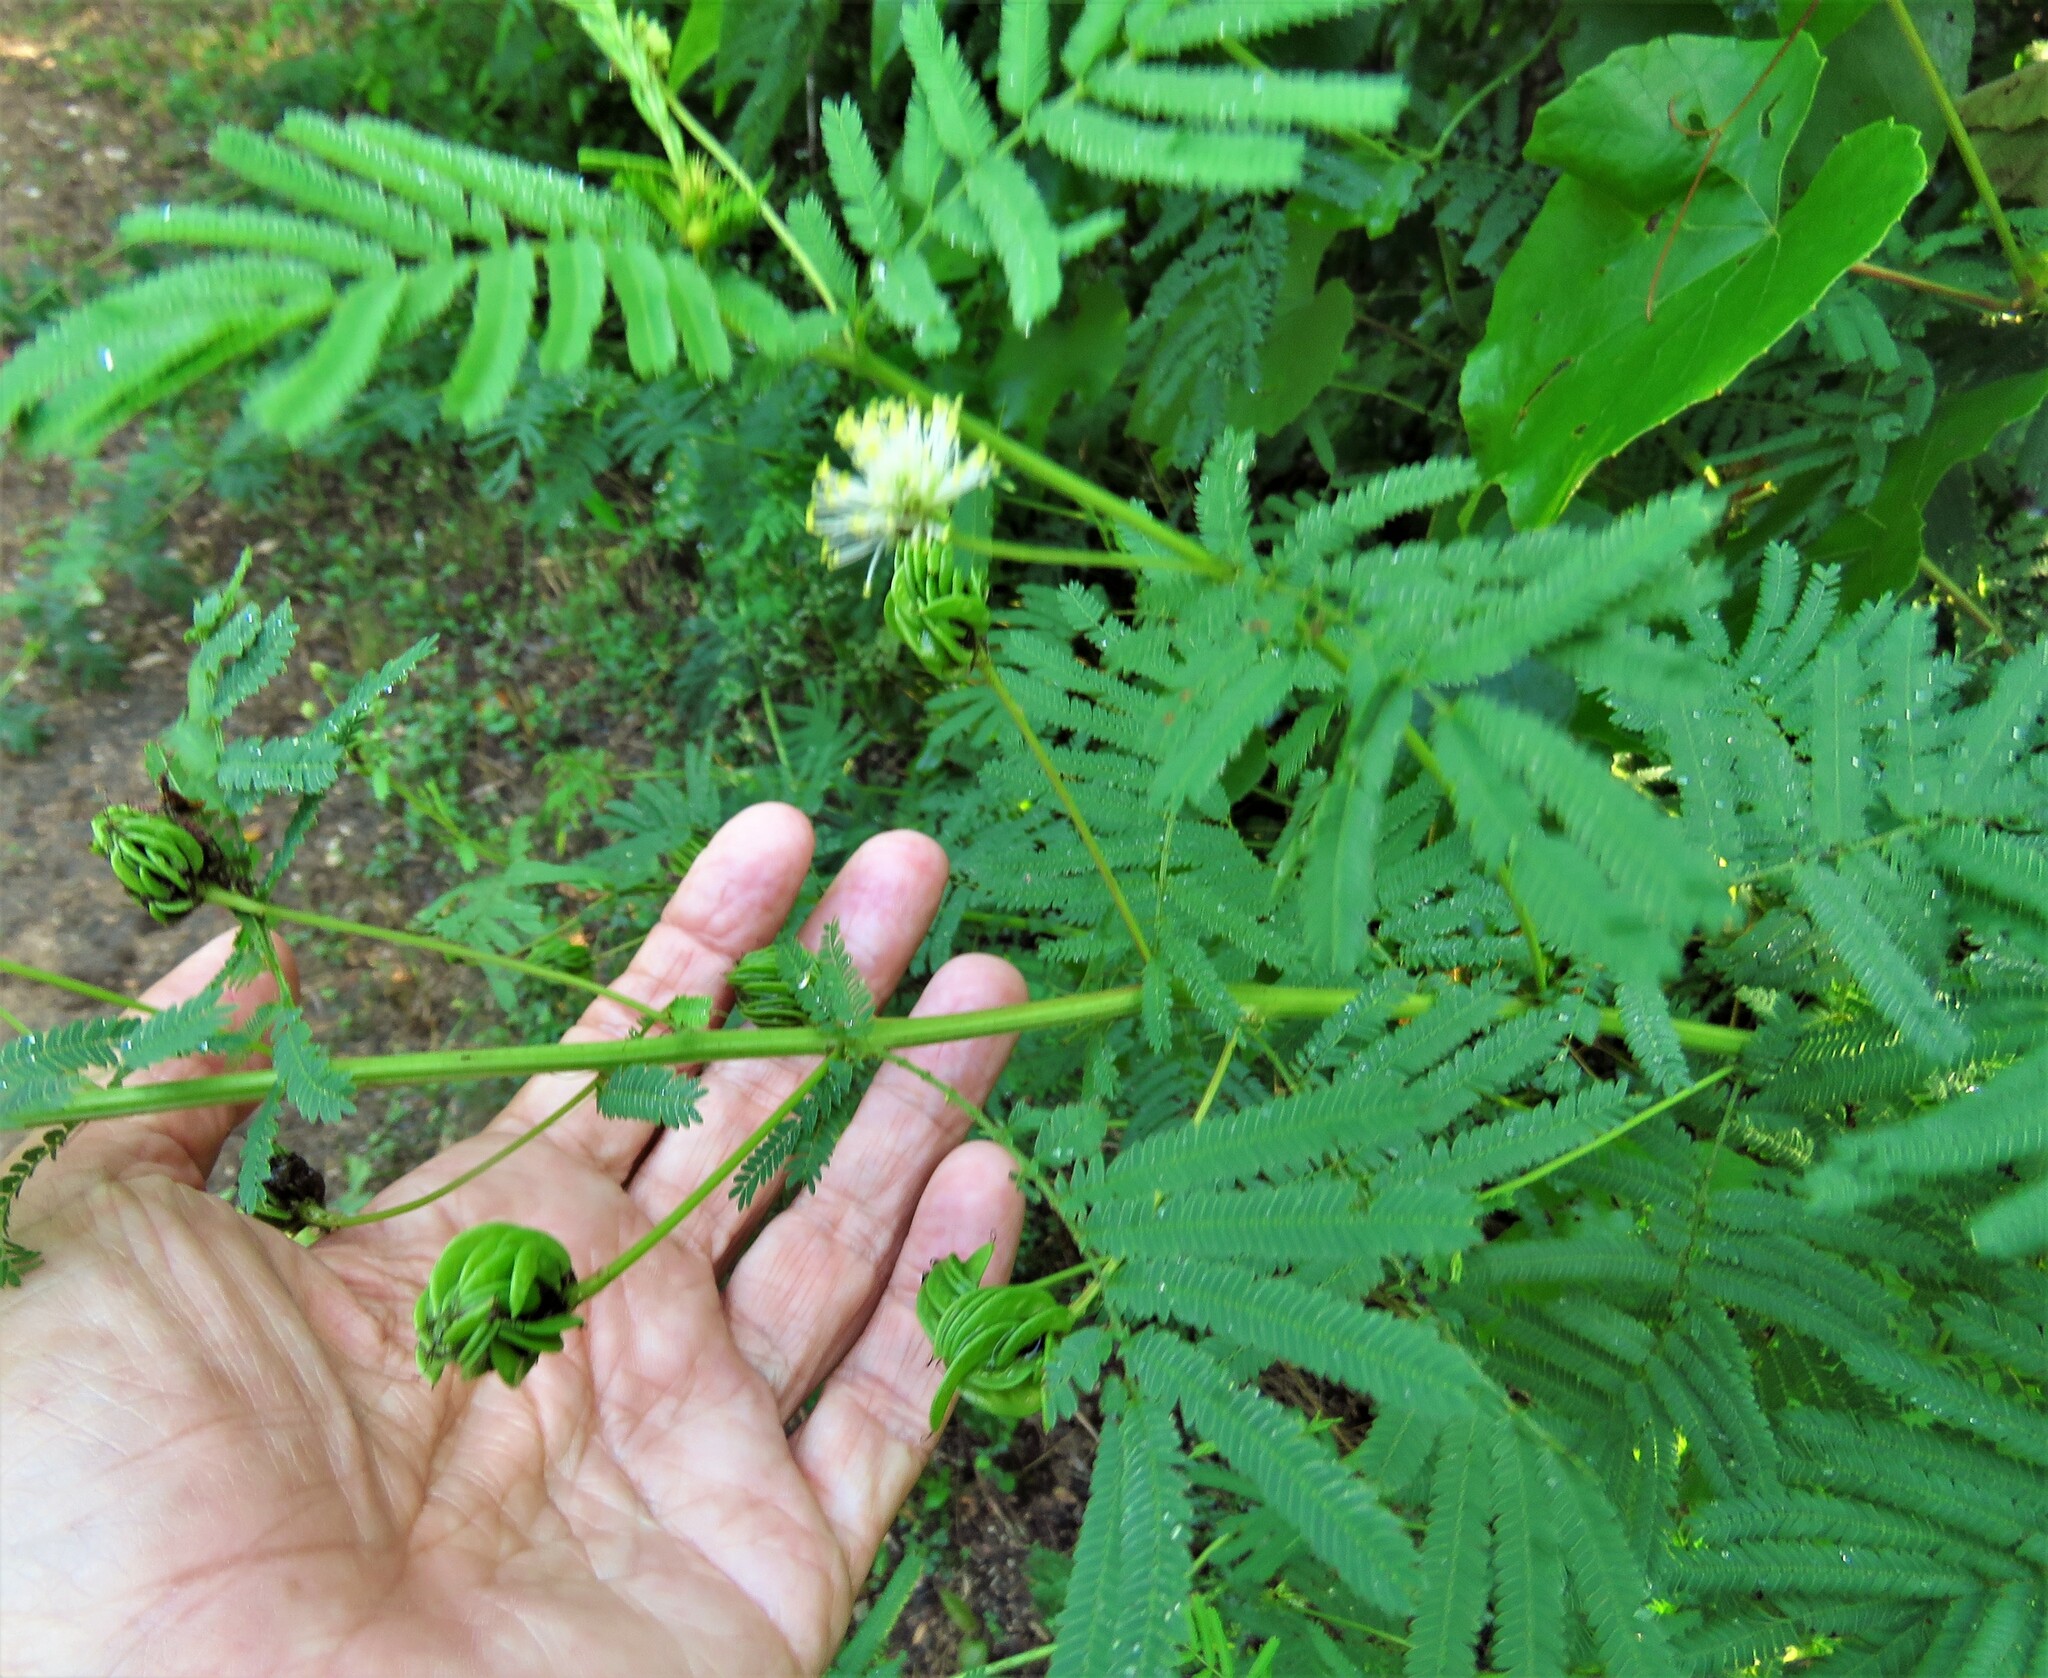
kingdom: Plantae
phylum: Tracheophyta
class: Magnoliopsida
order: Fabales
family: Fabaceae
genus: Desmanthus
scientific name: Desmanthus illinoensis
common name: Illinois bundle-flower
